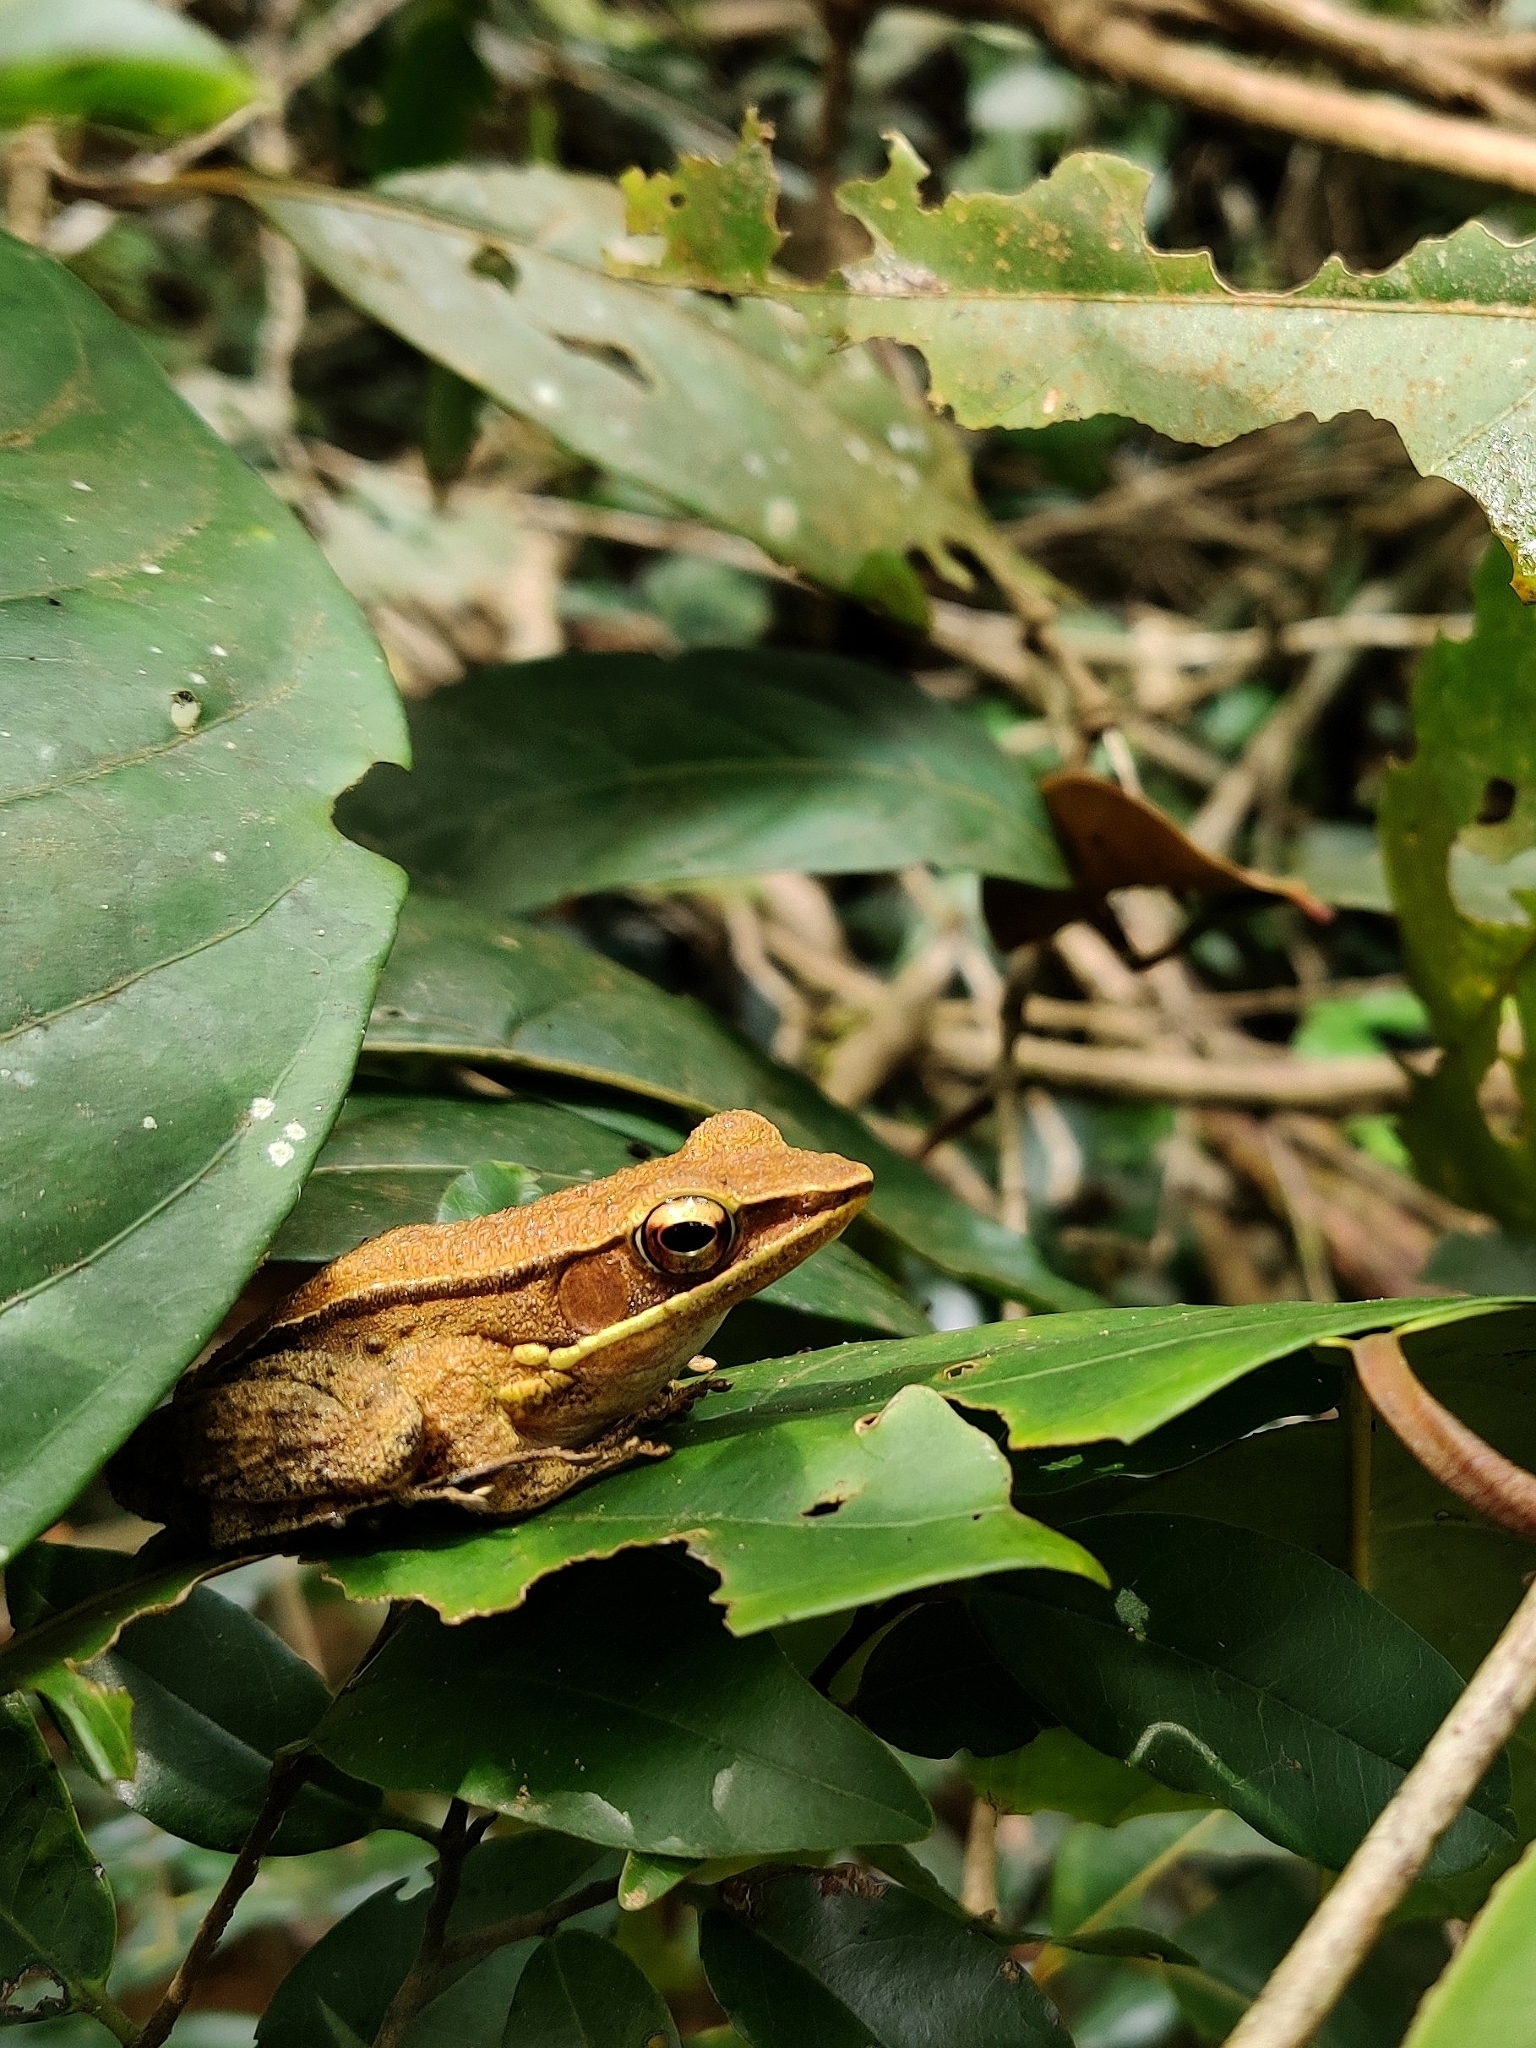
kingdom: Animalia
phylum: Chordata
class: Amphibia
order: Anura
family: Ranidae
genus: Indosylvirana
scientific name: Indosylvirana indica
